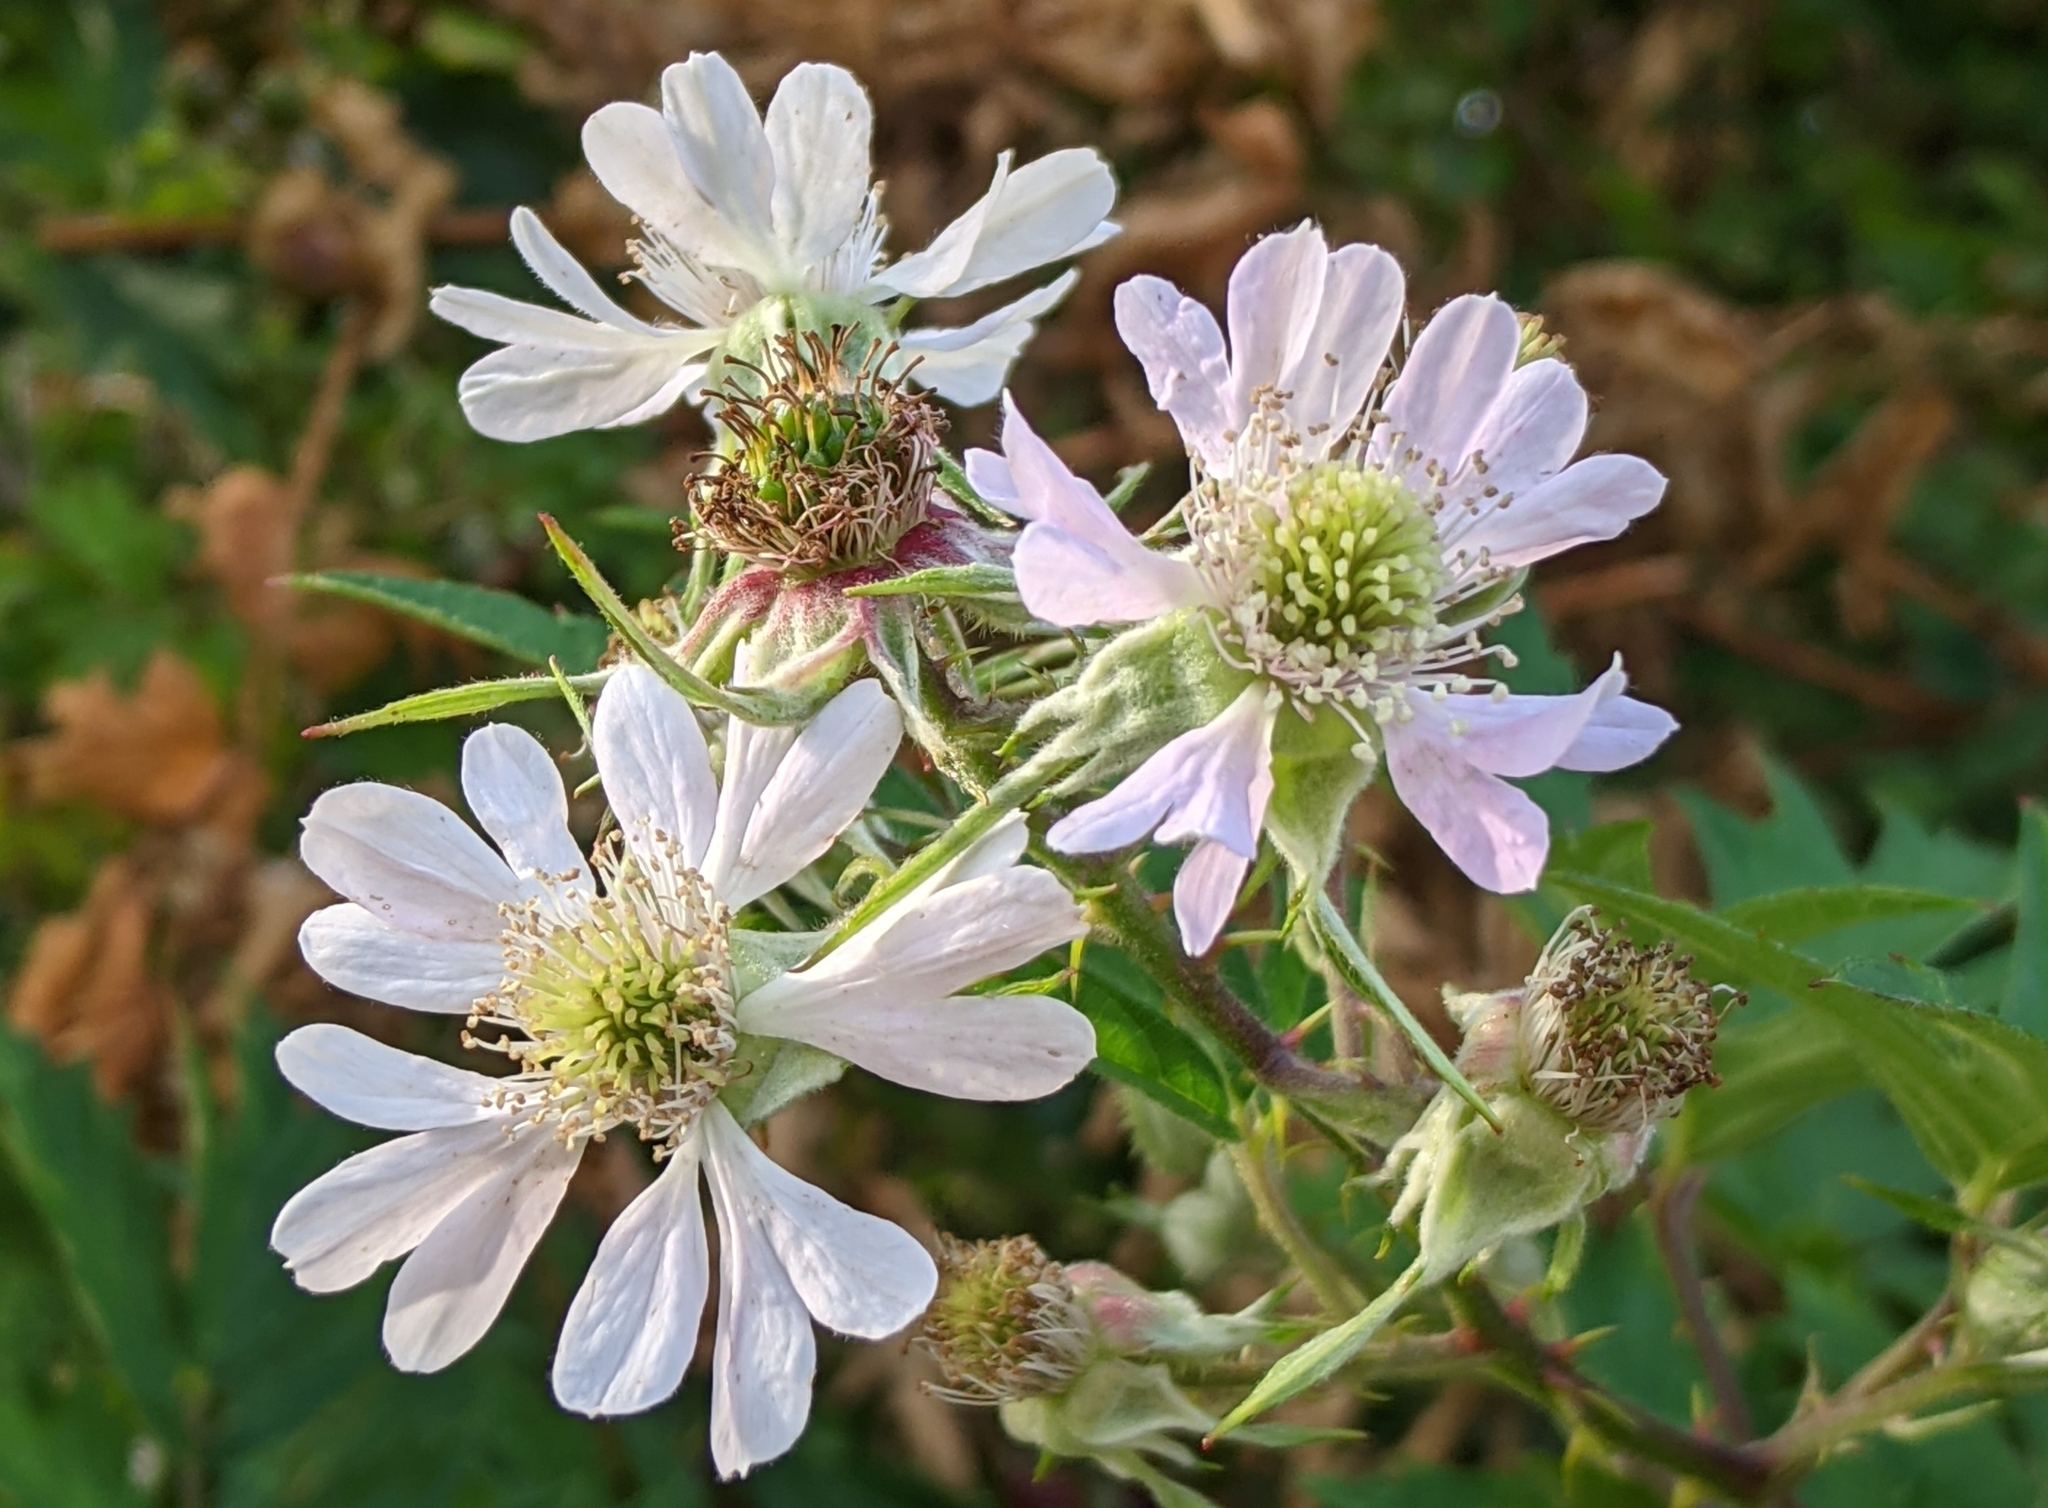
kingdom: Plantae
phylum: Tracheophyta
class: Magnoliopsida
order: Rosales
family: Rosaceae
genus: Rubus
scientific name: Rubus laciniatus
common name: Evergreen blackberry
